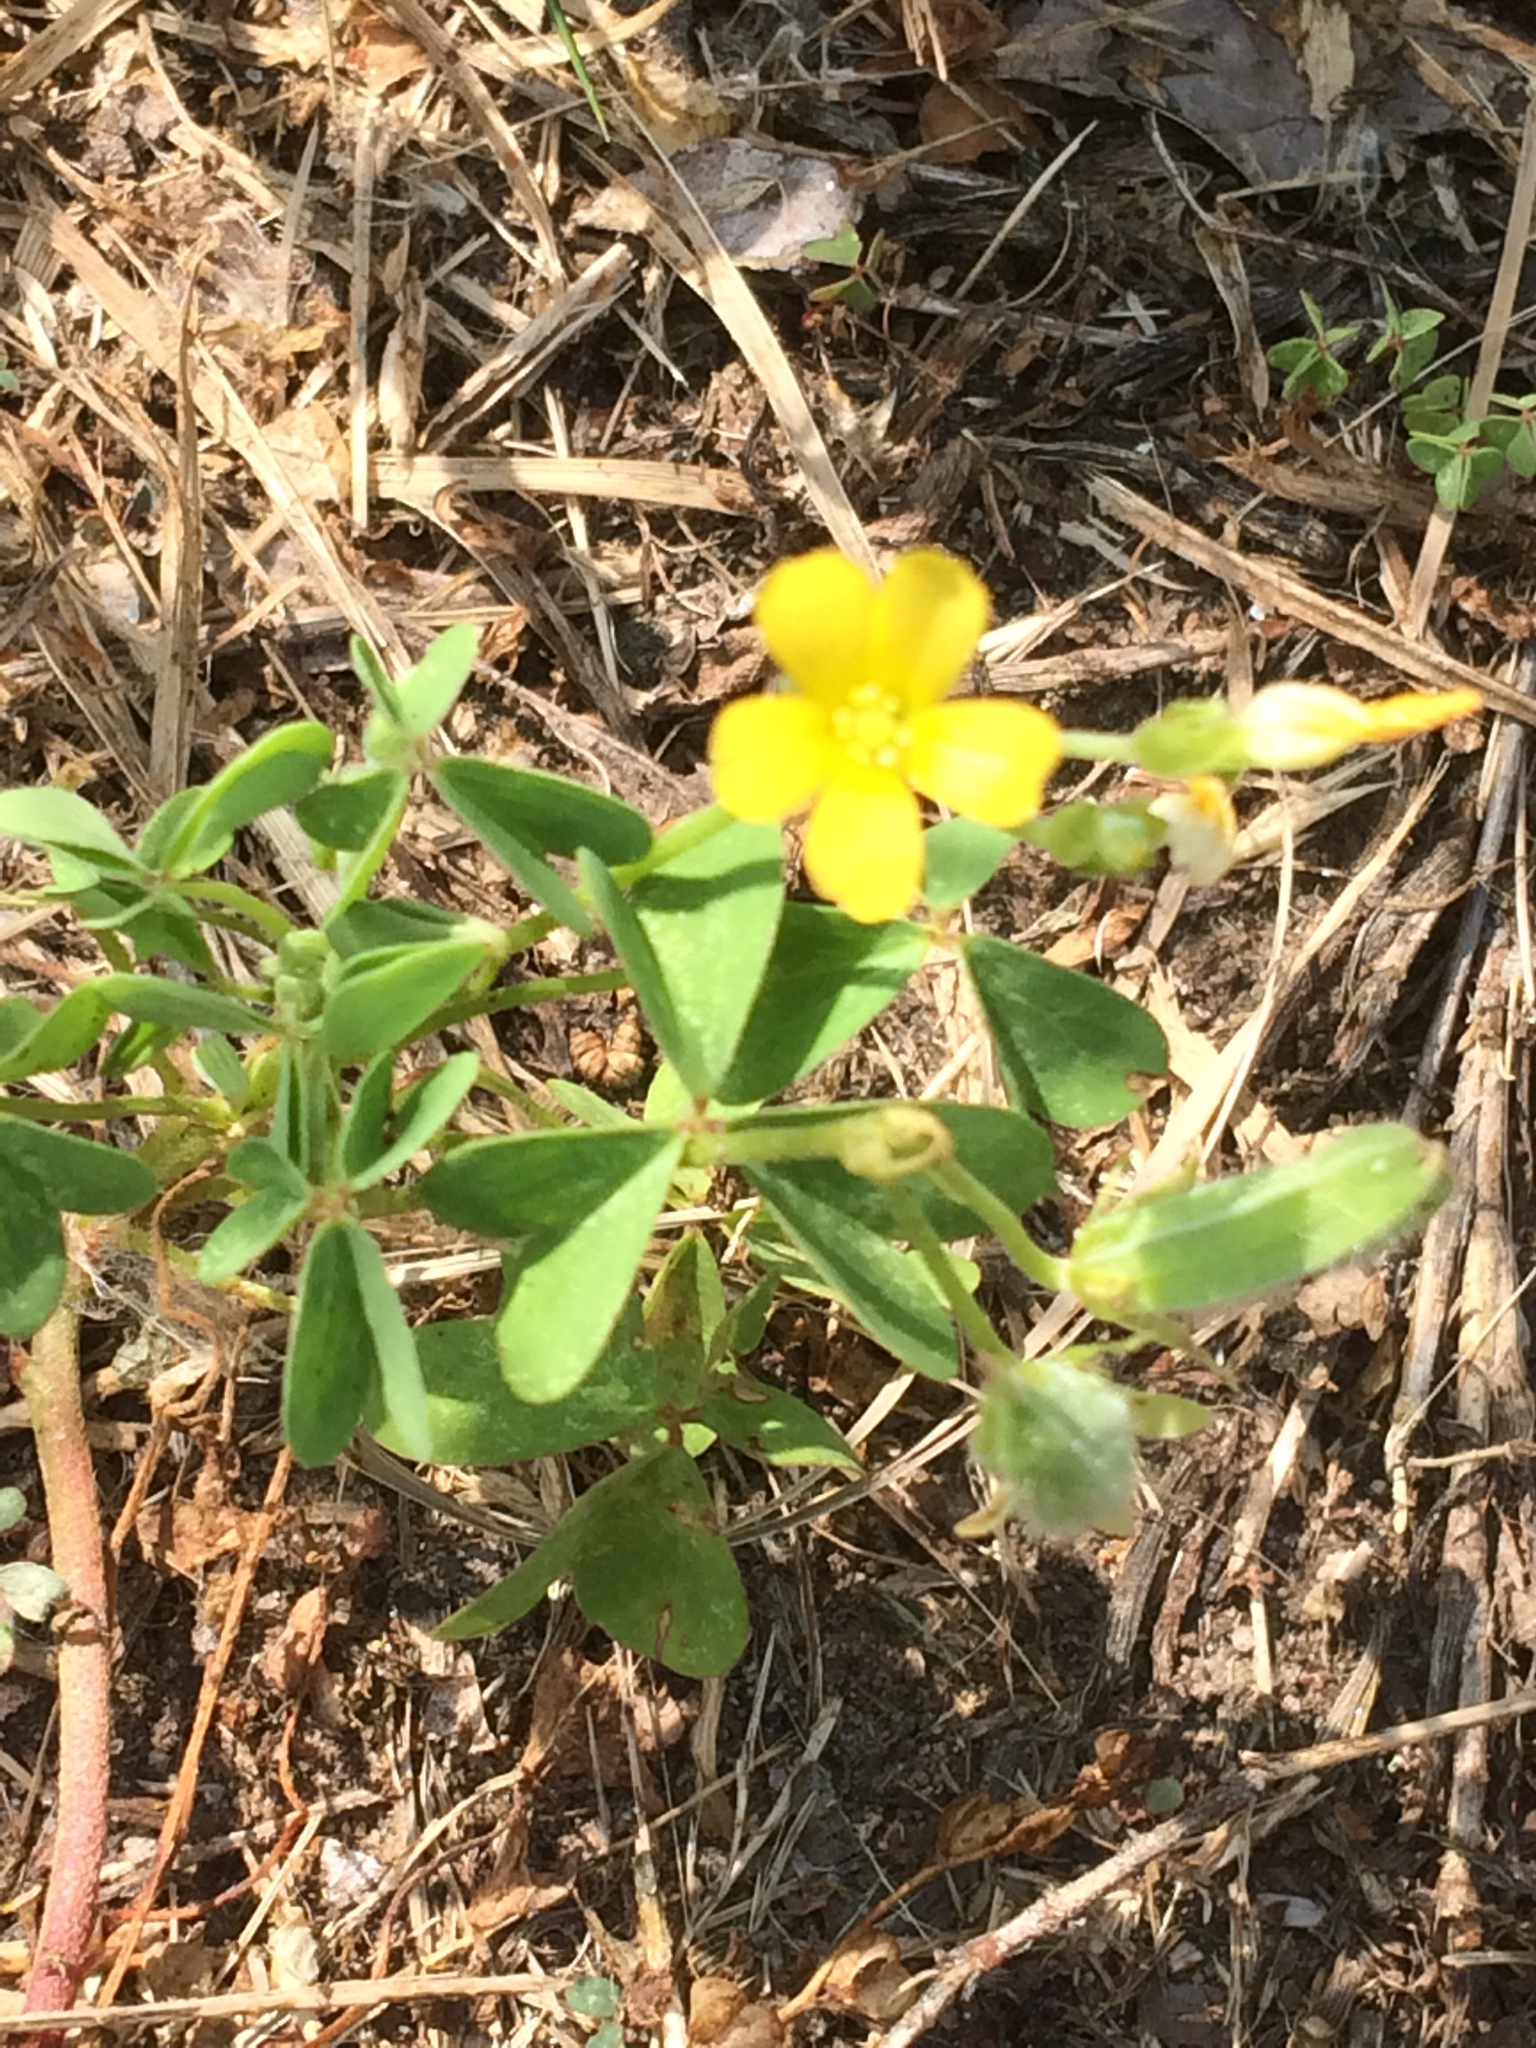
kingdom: Plantae
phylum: Tracheophyta
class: Magnoliopsida
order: Oxalidales
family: Oxalidaceae
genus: Oxalis
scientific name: Oxalis stricta
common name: Upright yellow-sorrel
